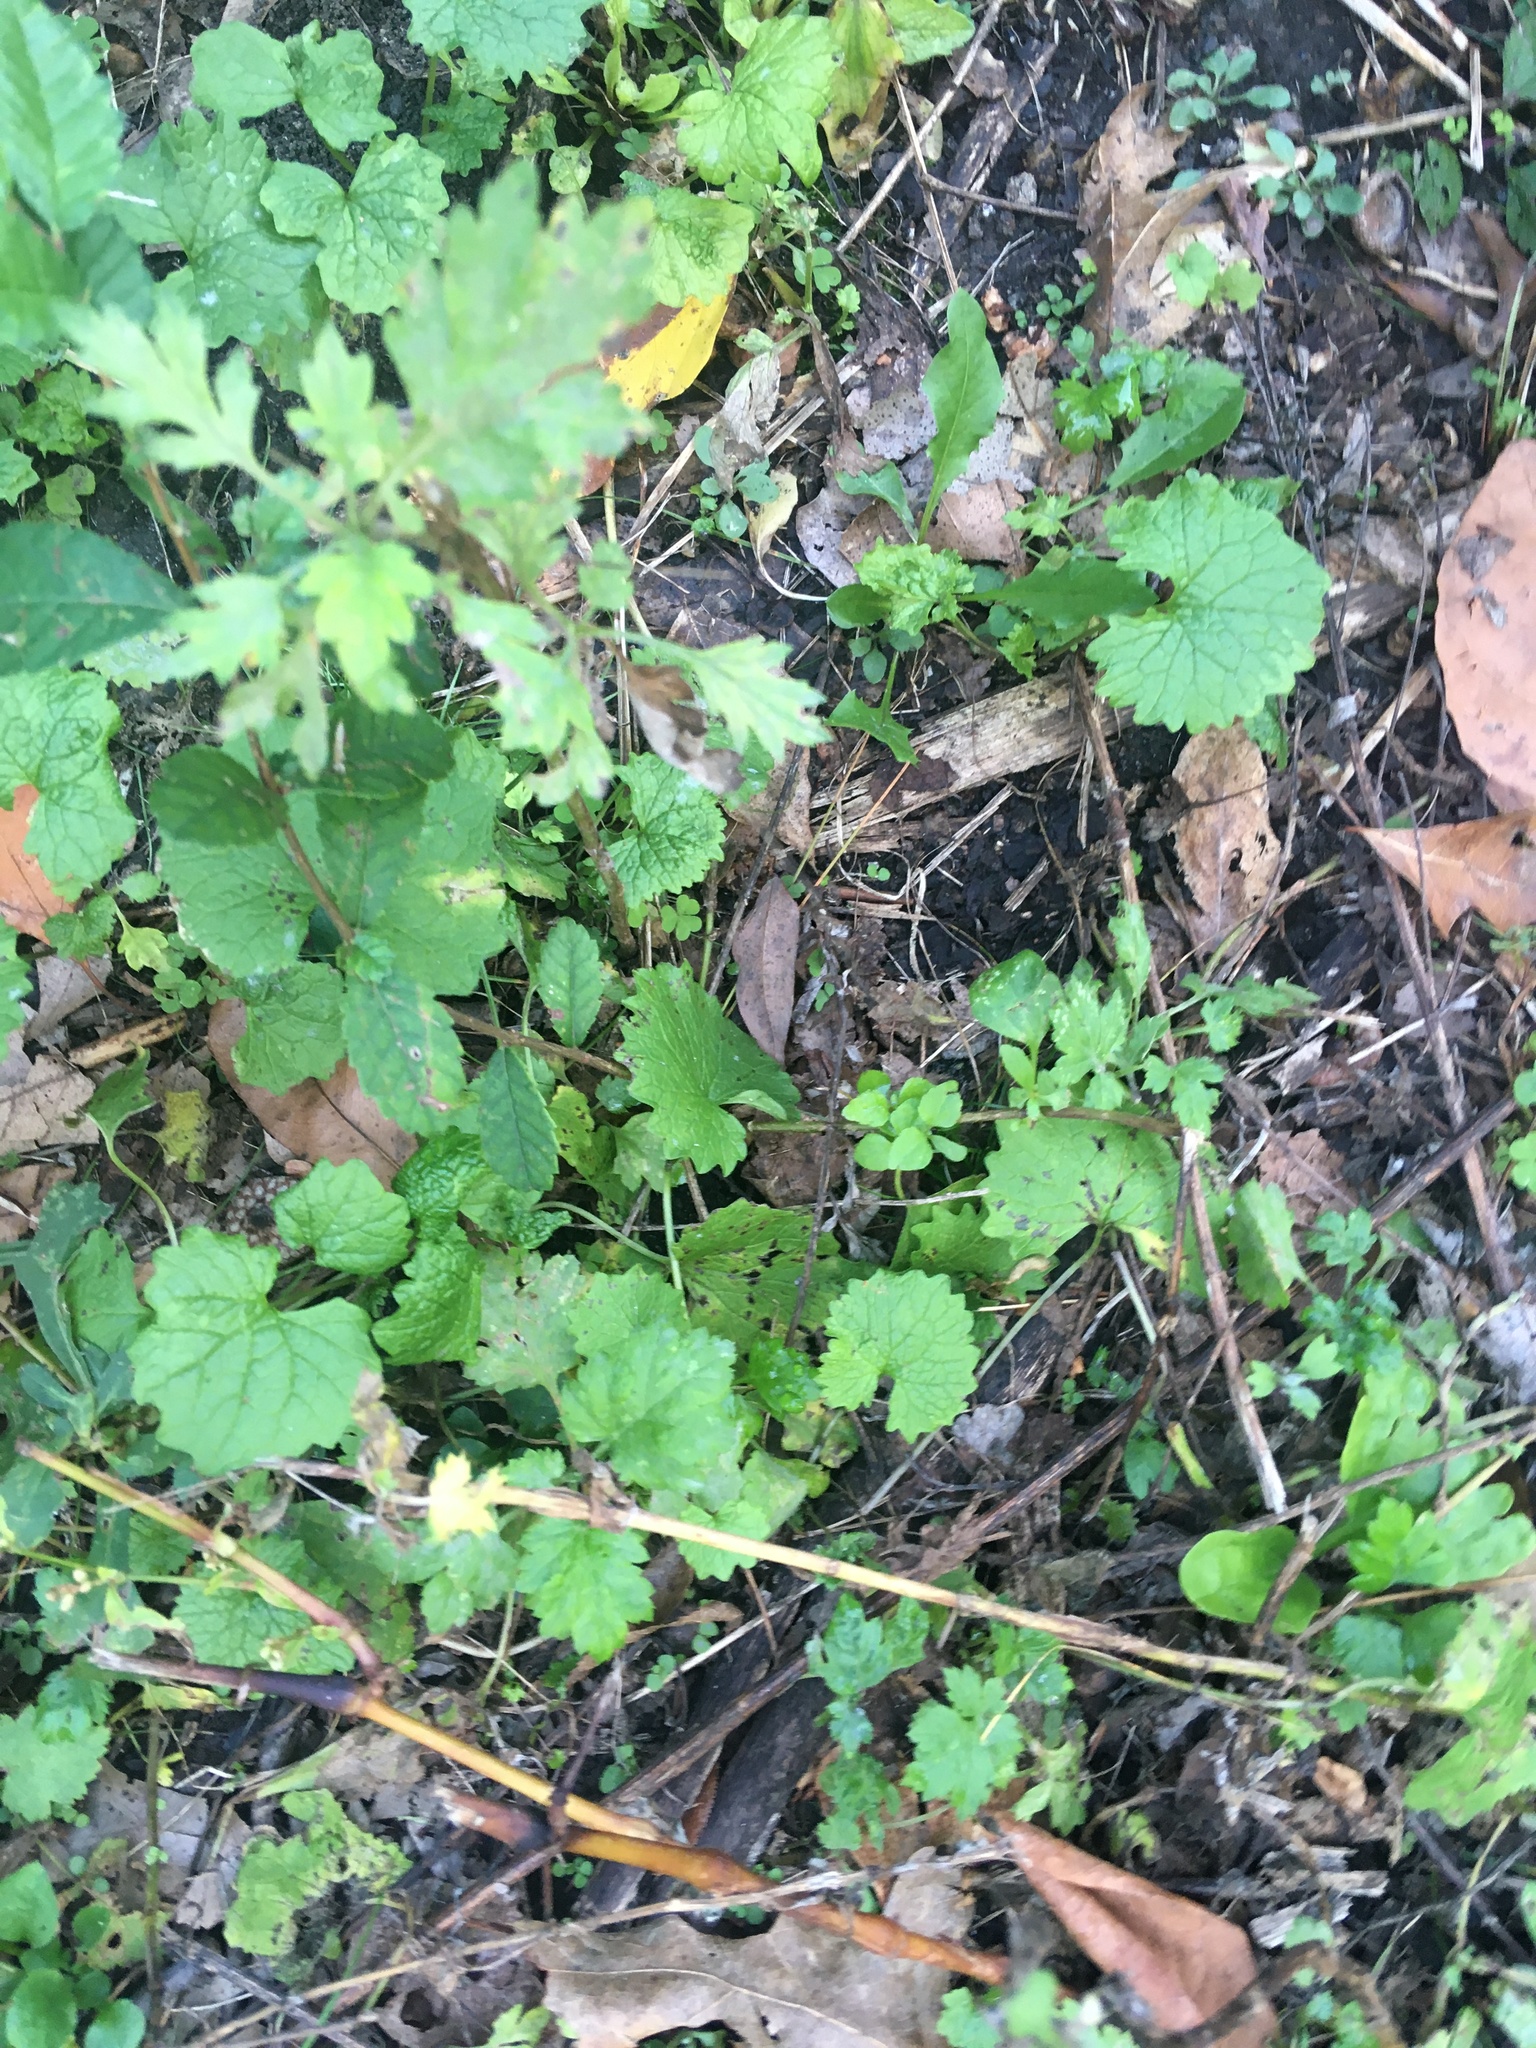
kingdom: Plantae
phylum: Tracheophyta
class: Magnoliopsida
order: Asterales
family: Asteraceae
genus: Artemisia
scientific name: Artemisia vulgaris
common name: Mugwort
